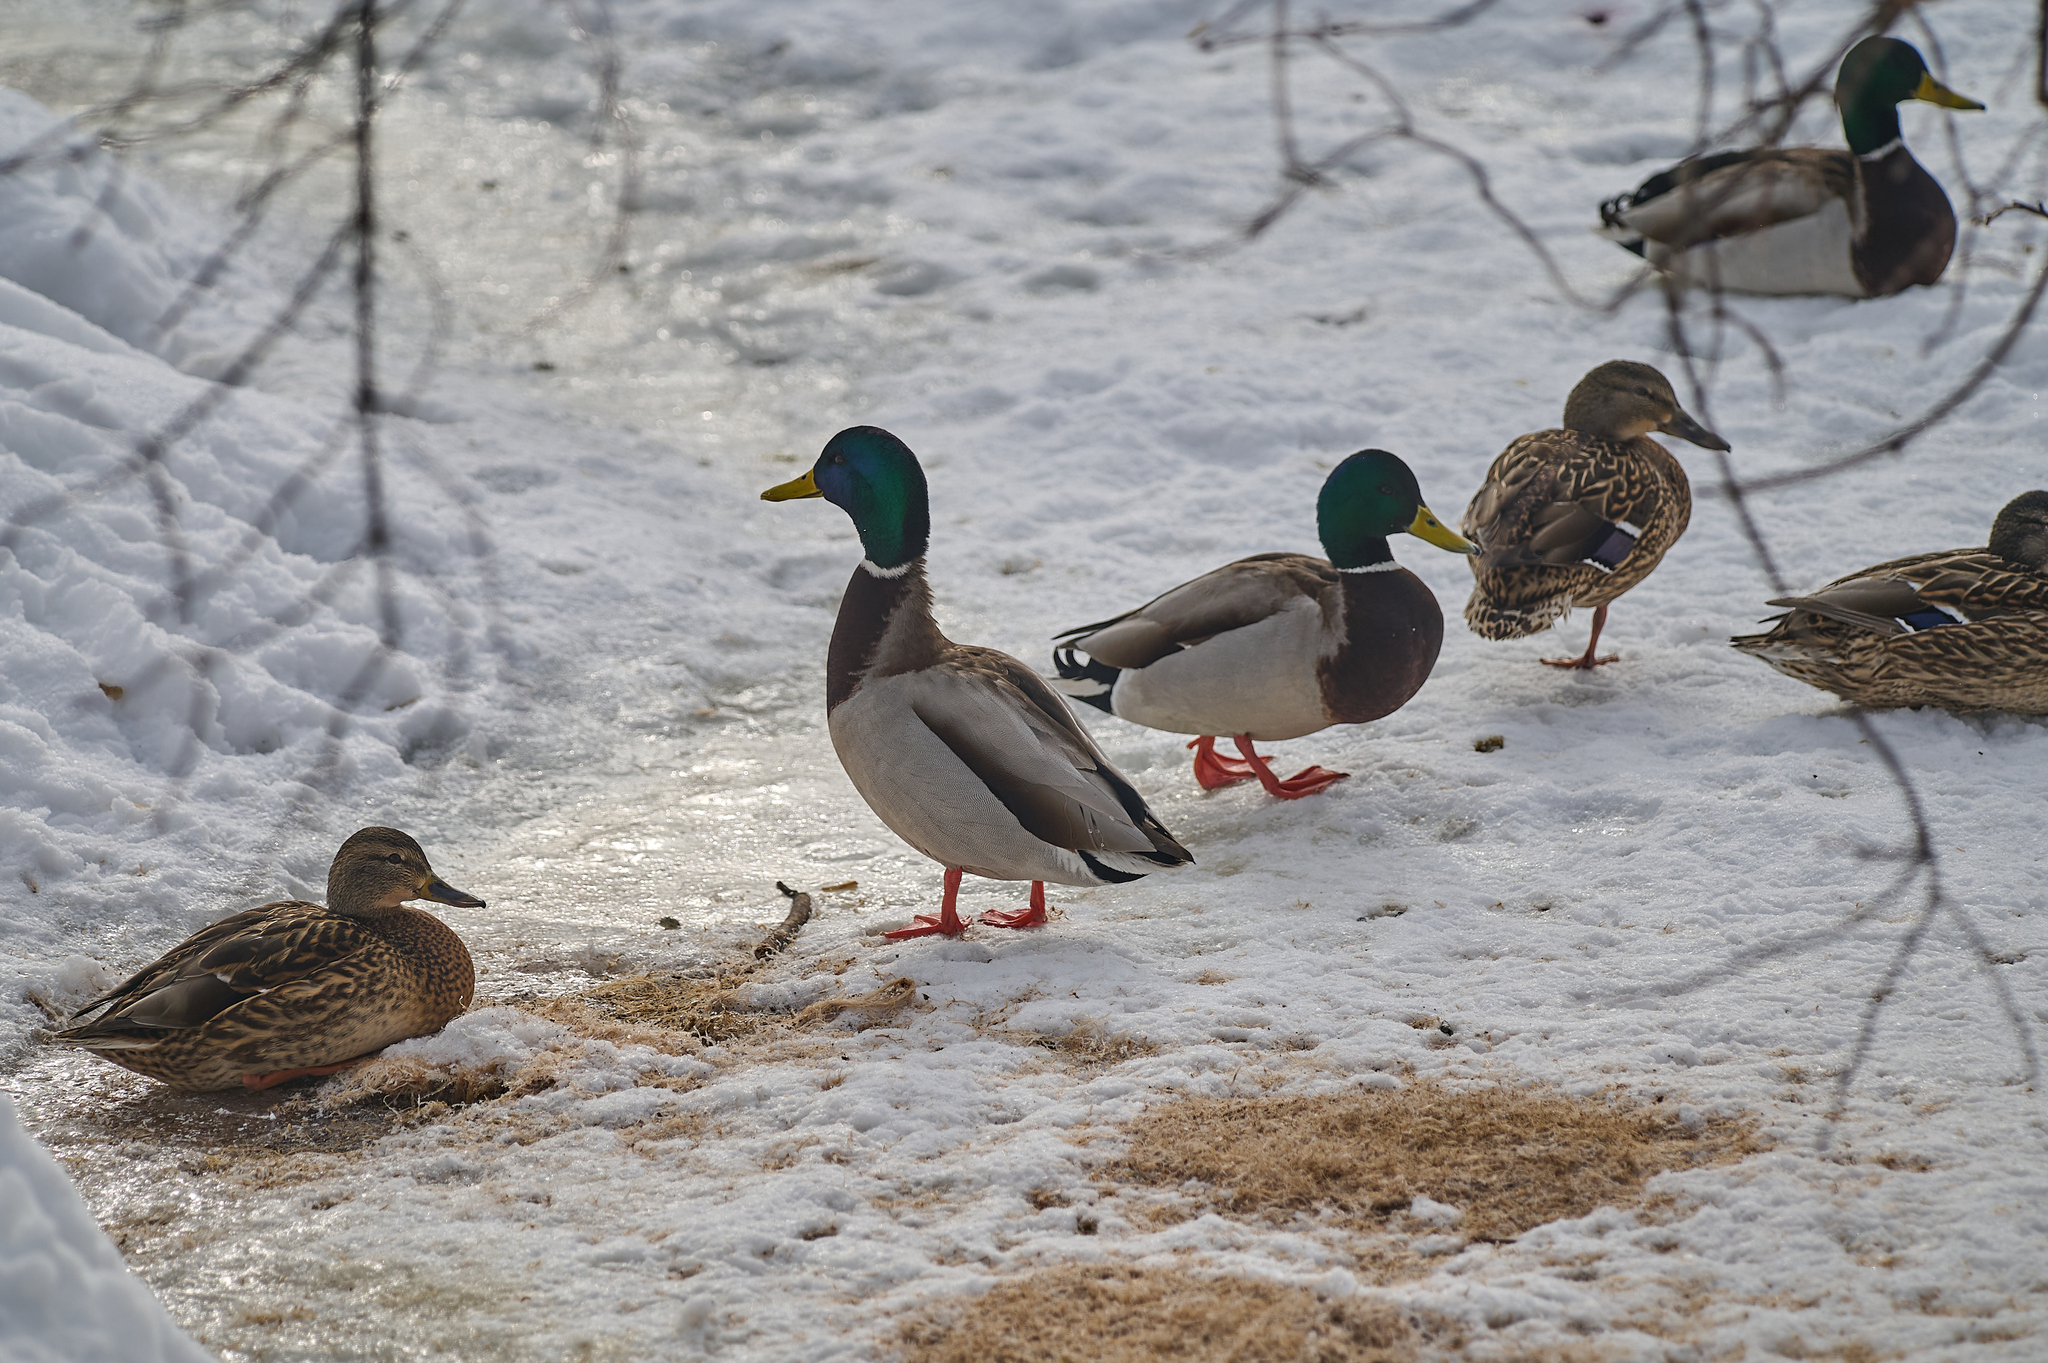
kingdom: Animalia
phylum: Chordata
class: Aves
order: Anseriformes
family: Anatidae
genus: Anas
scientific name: Anas platyrhynchos
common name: Mallard
